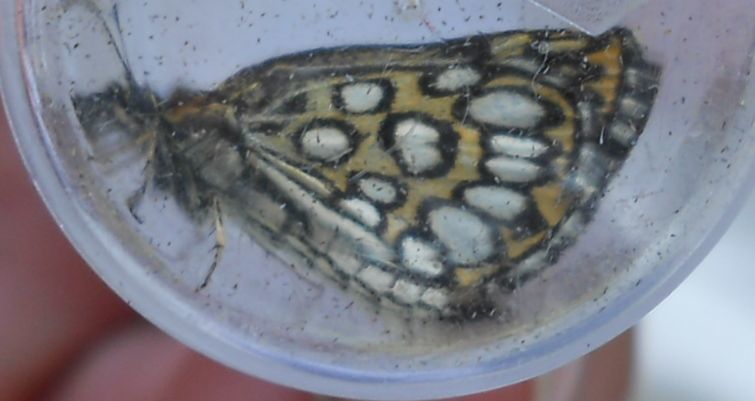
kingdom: Animalia
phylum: Arthropoda
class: Insecta
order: Lepidoptera
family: Hesperiidae
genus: Heteropterus
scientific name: Heteropterus morpheus
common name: Large chequered skipper
